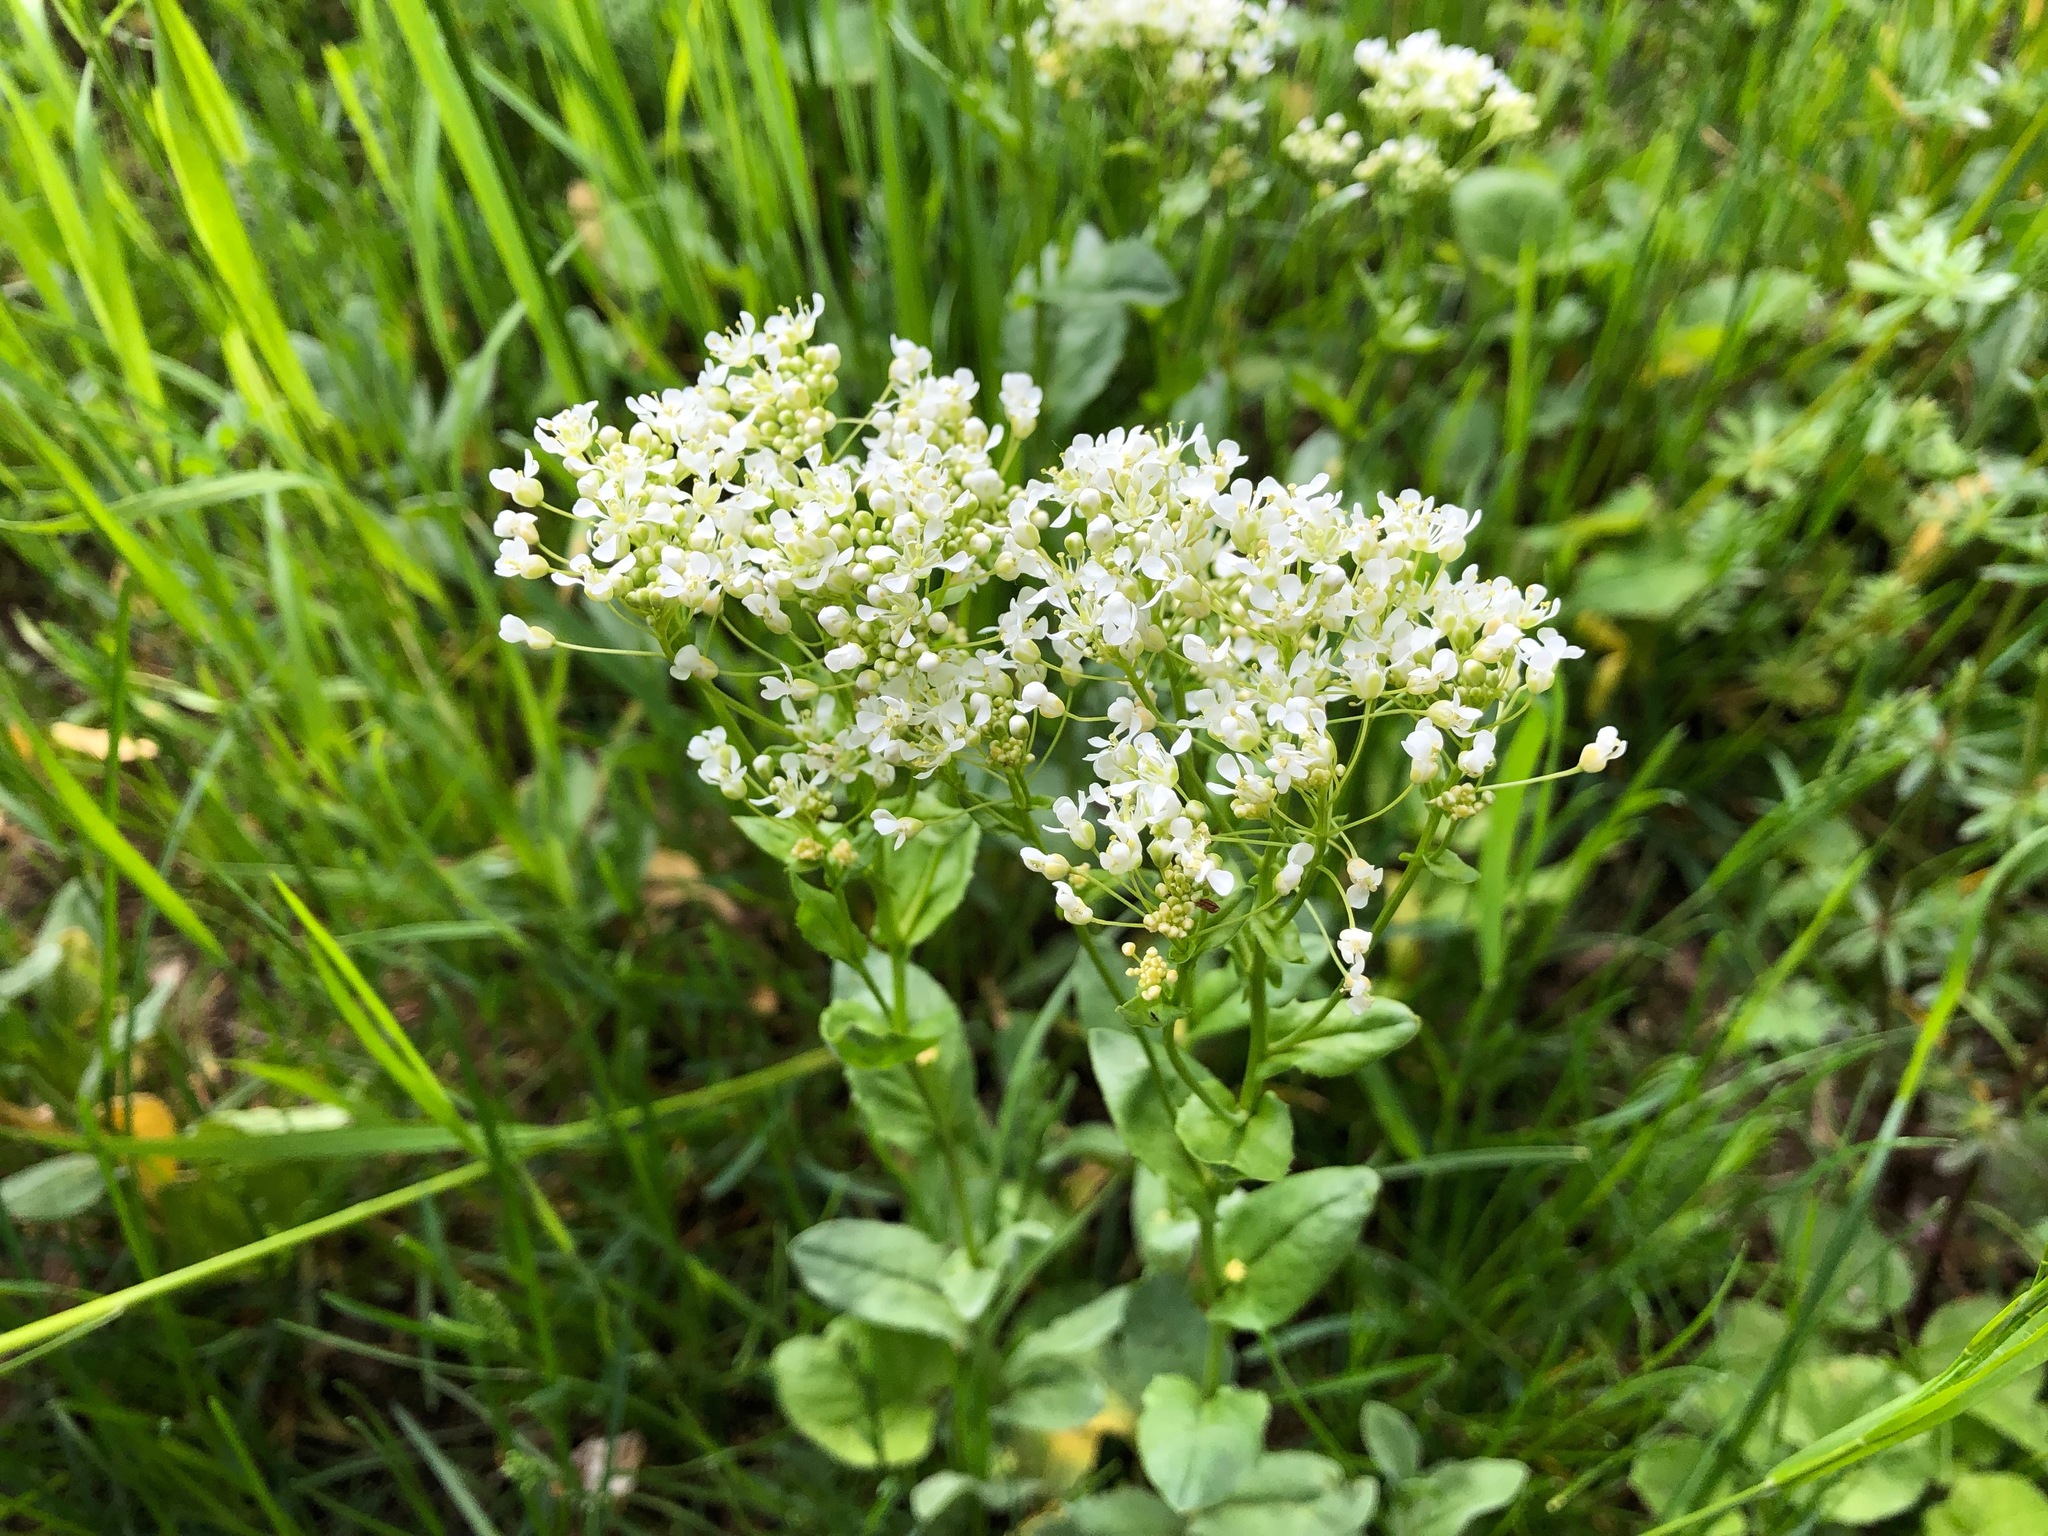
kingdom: Plantae
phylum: Tracheophyta
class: Magnoliopsida
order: Brassicales
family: Brassicaceae
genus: Lepidium
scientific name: Lepidium draba
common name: Hoary cress
